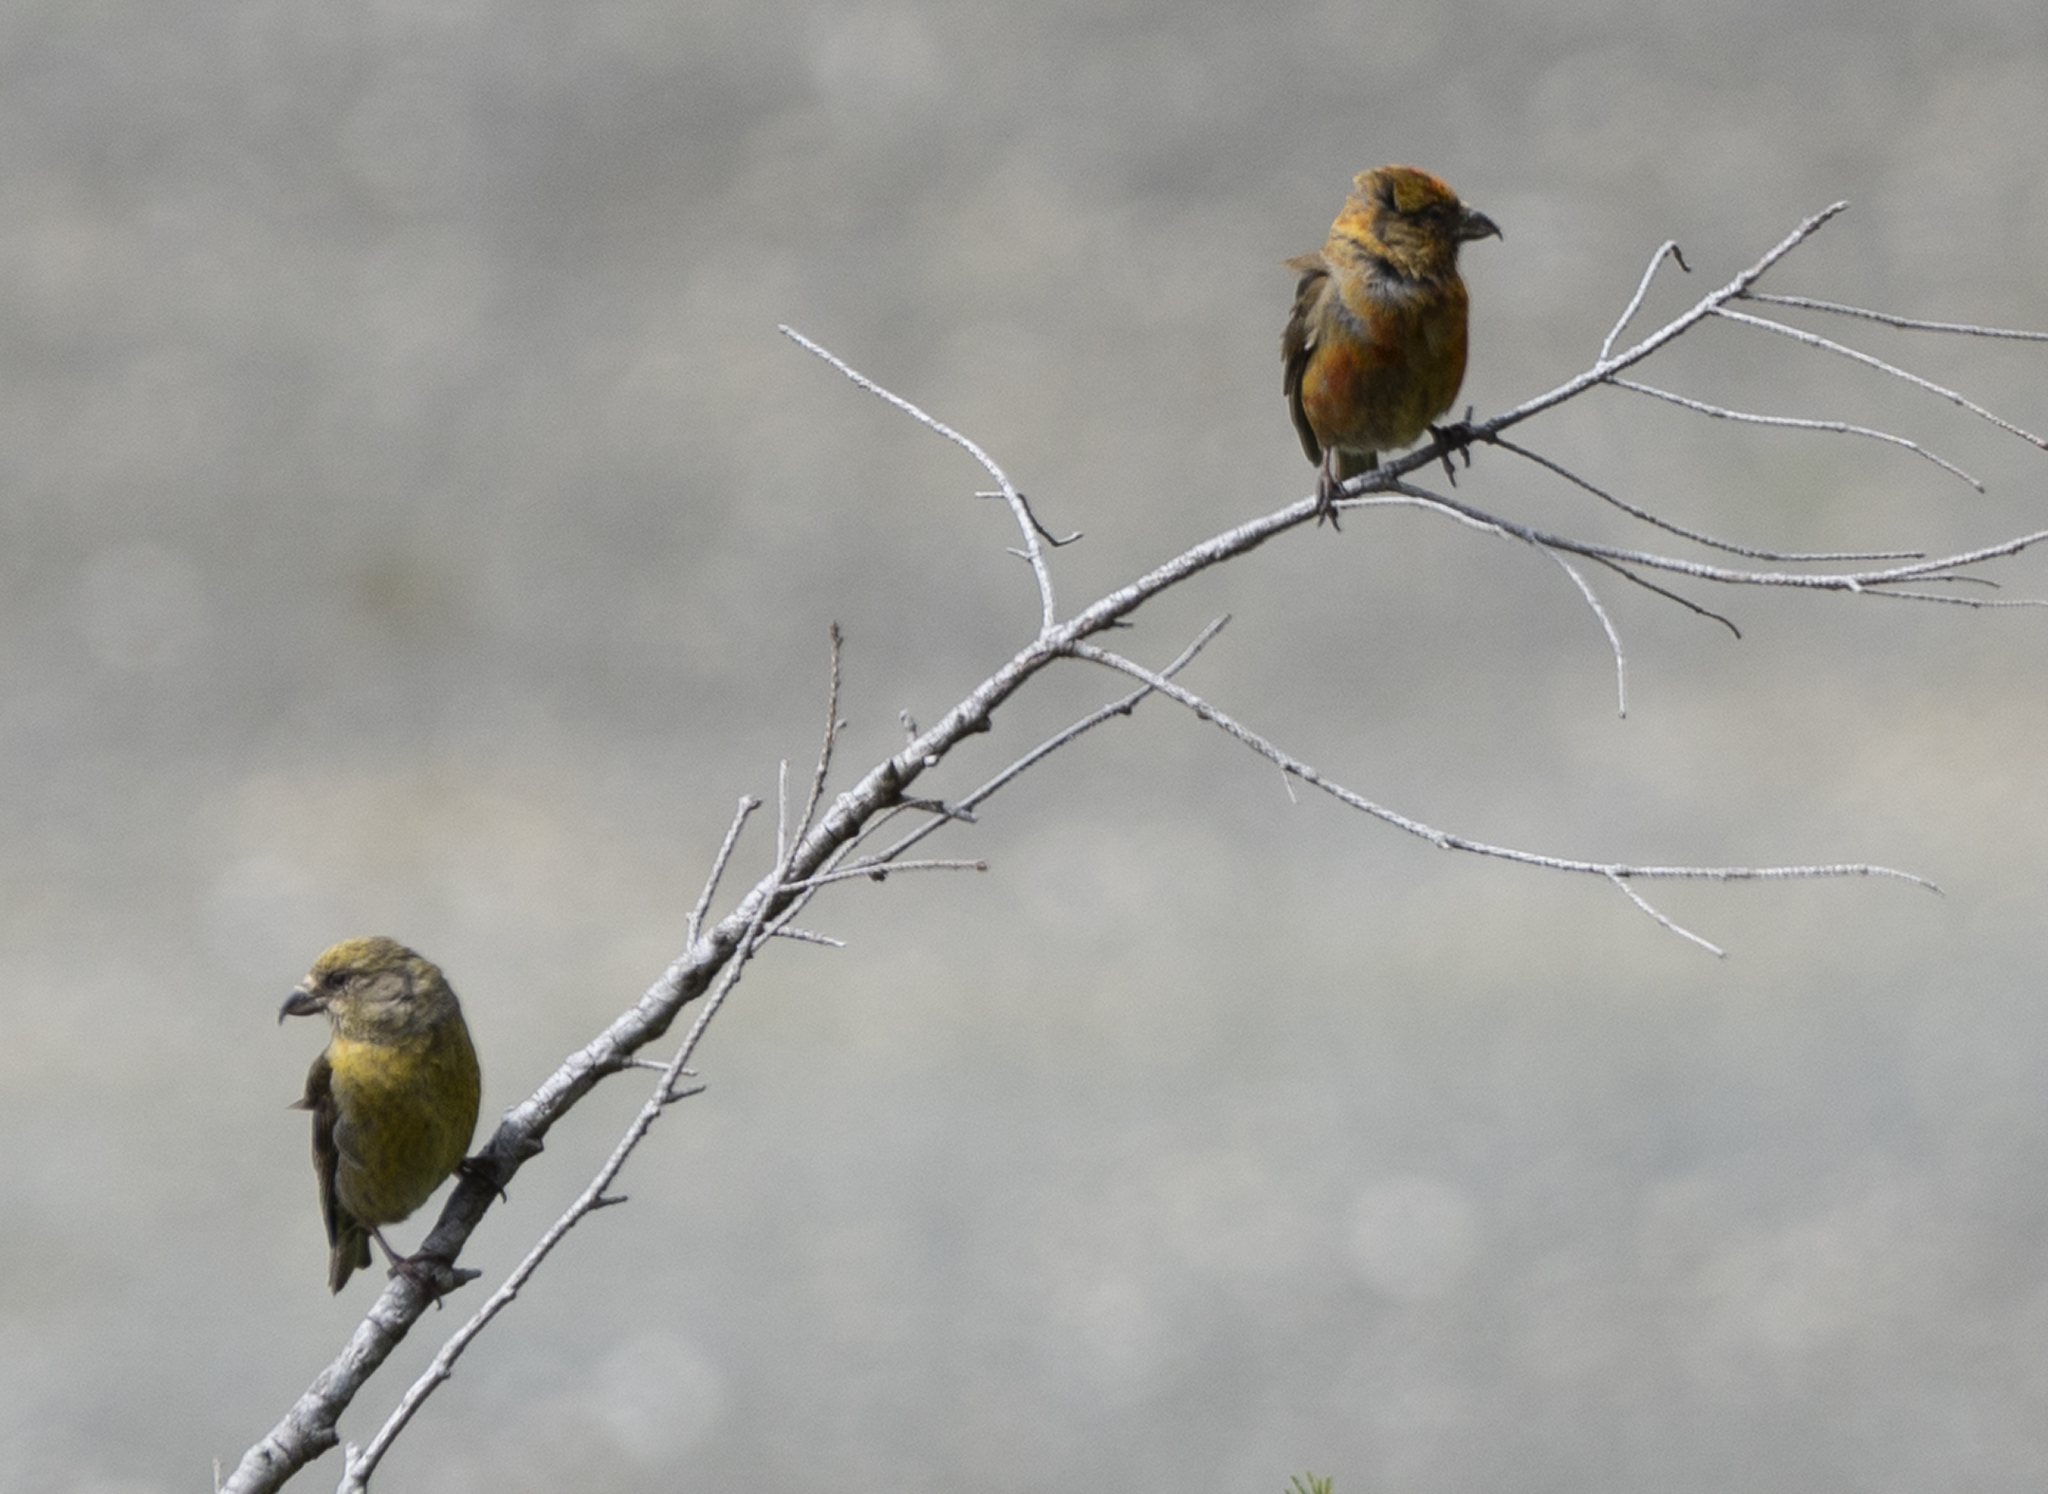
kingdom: Animalia
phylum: Chordata
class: Aves
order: Passeriformes
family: Fringillidae
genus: Loxia
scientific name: Loxia curvirostra
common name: Red crossbill
